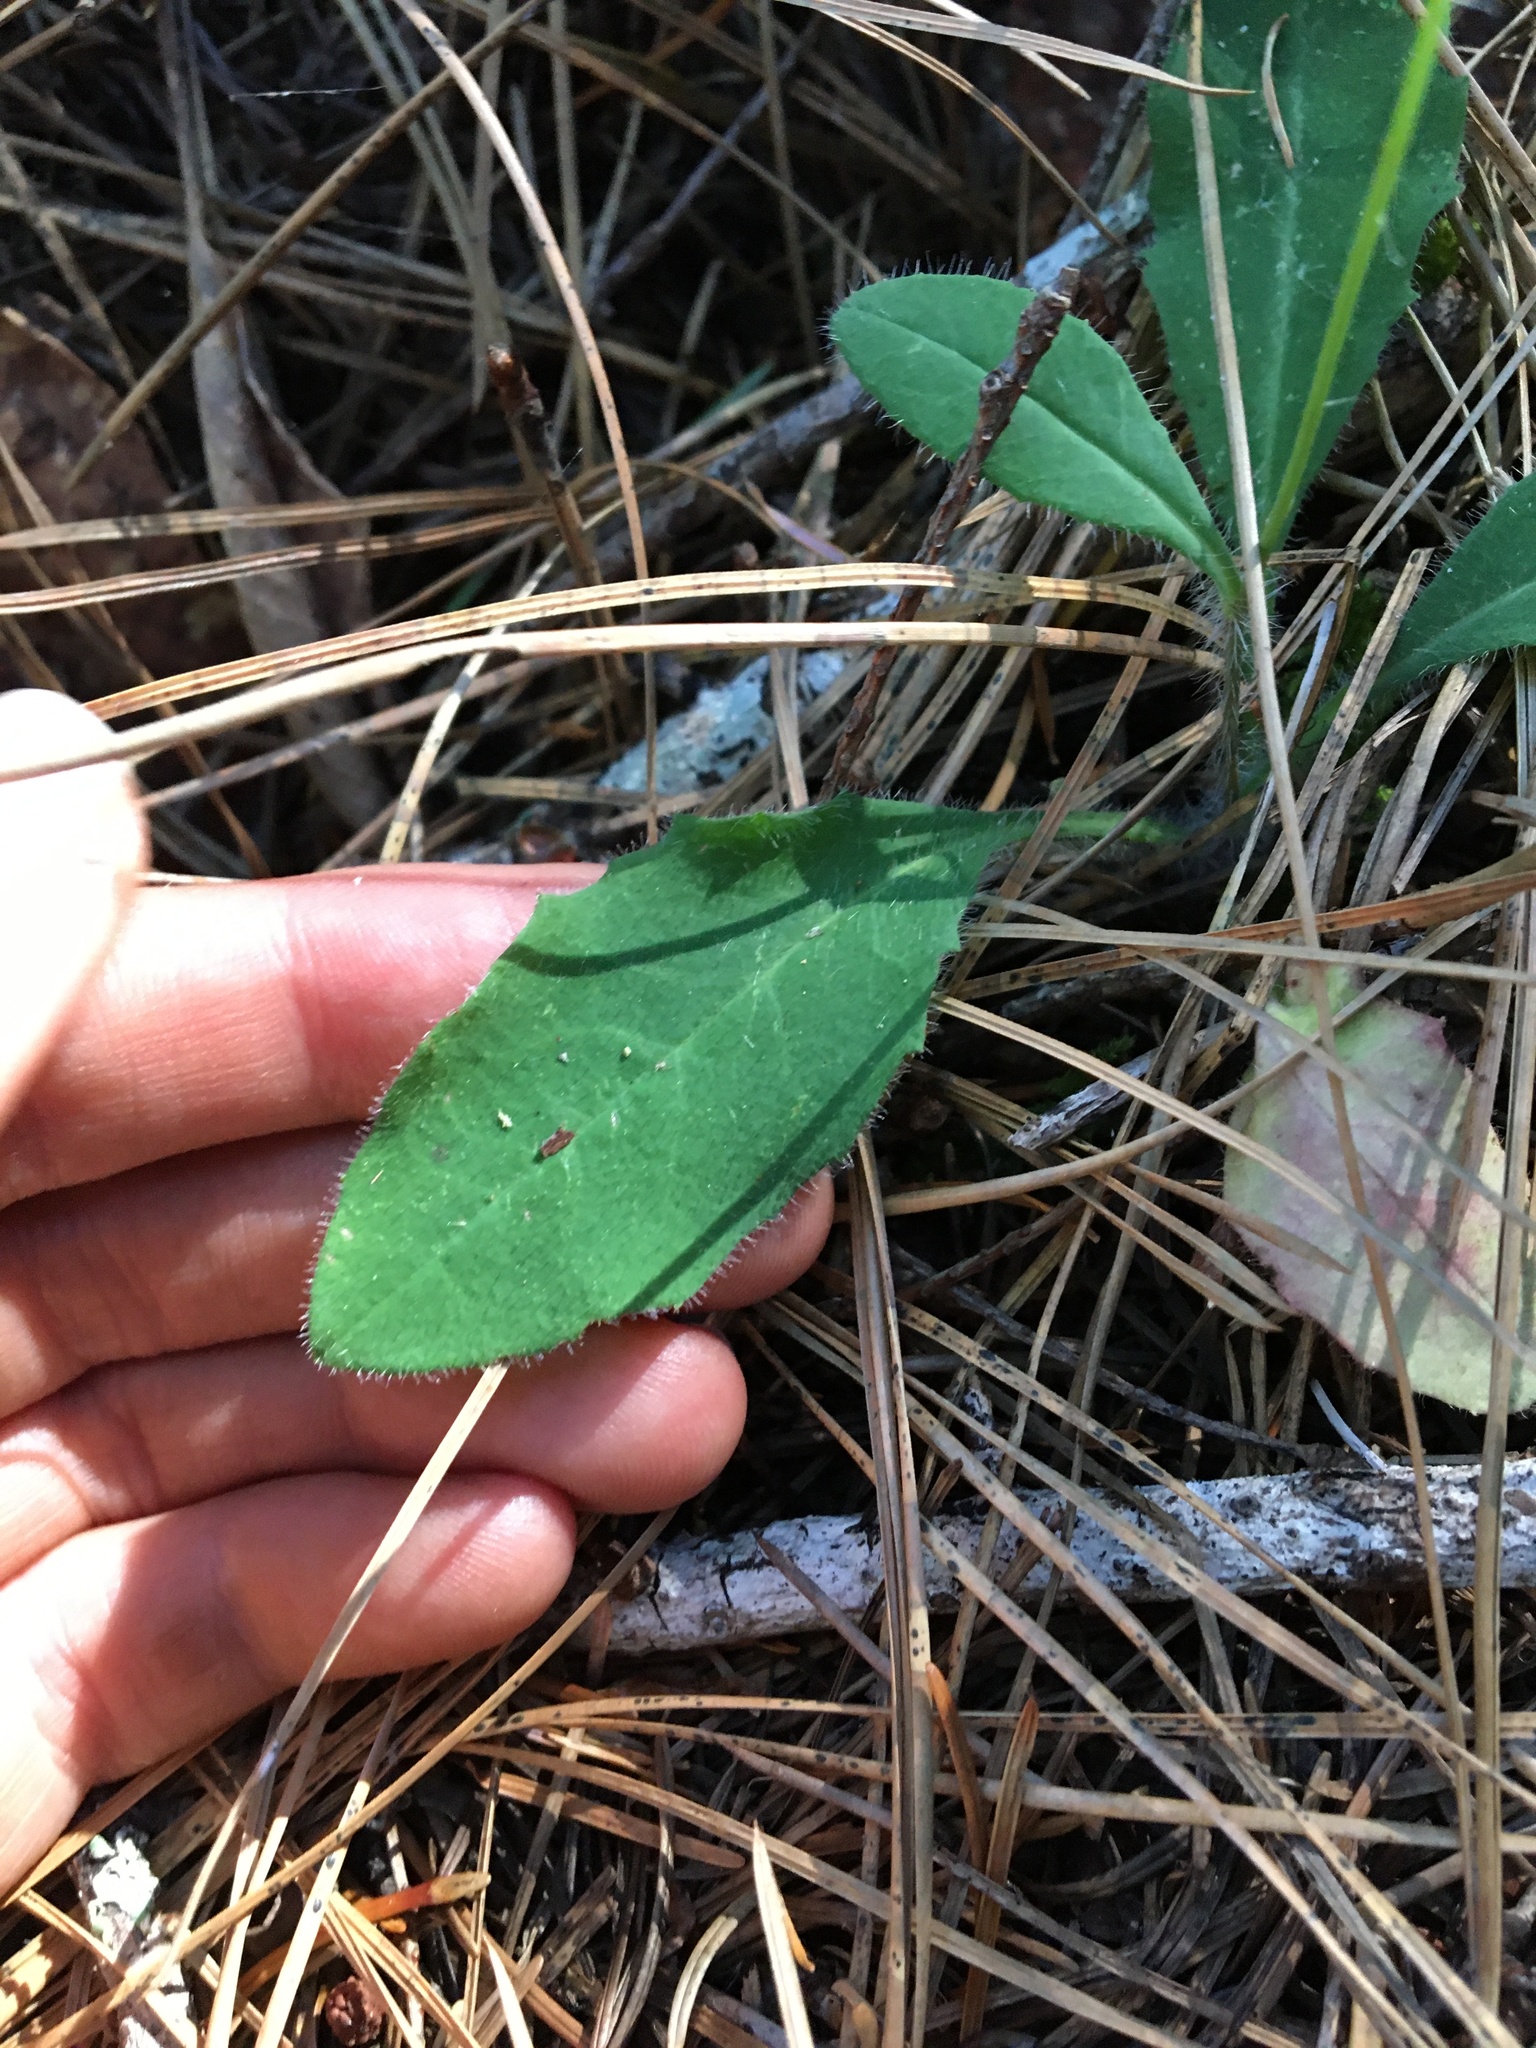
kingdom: Plantae
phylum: Tracheophyta
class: Magnoliopsida
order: Asterales
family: Asteraceae
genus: Hieracium
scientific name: Hieracium albiflorum
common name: White hawkweed
